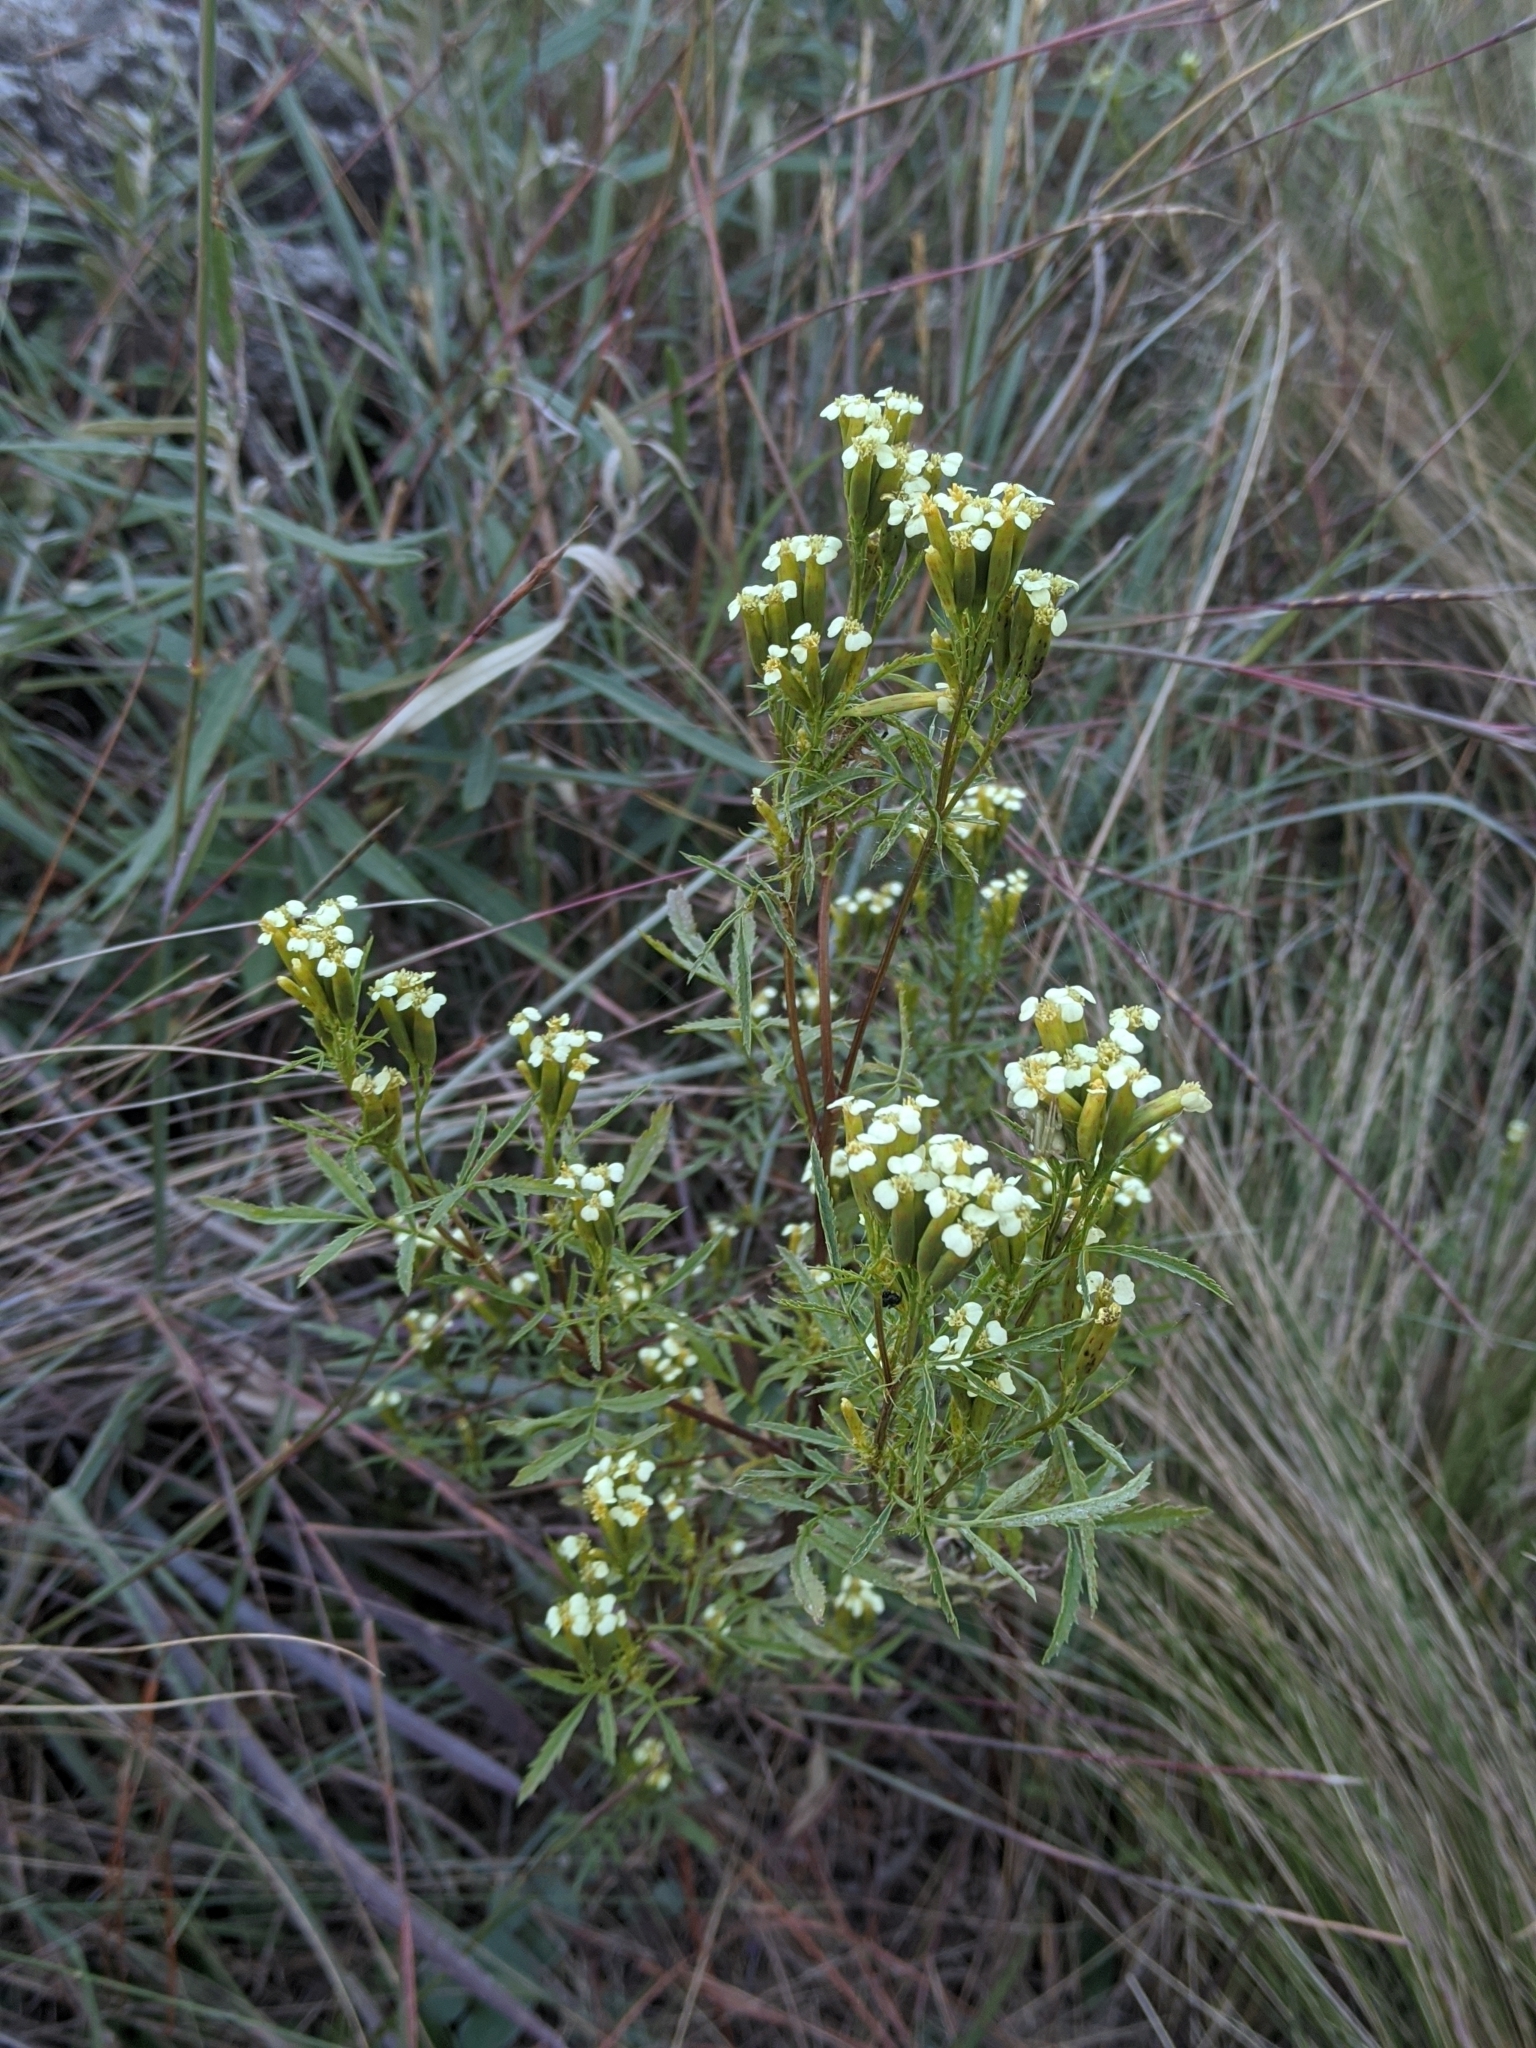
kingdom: Plantae
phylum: Tracheophyta
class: Magnoliopsida
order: Asterales
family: Asteraceae
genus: Tagetes
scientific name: Tagetes minuta
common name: Muster john henry
